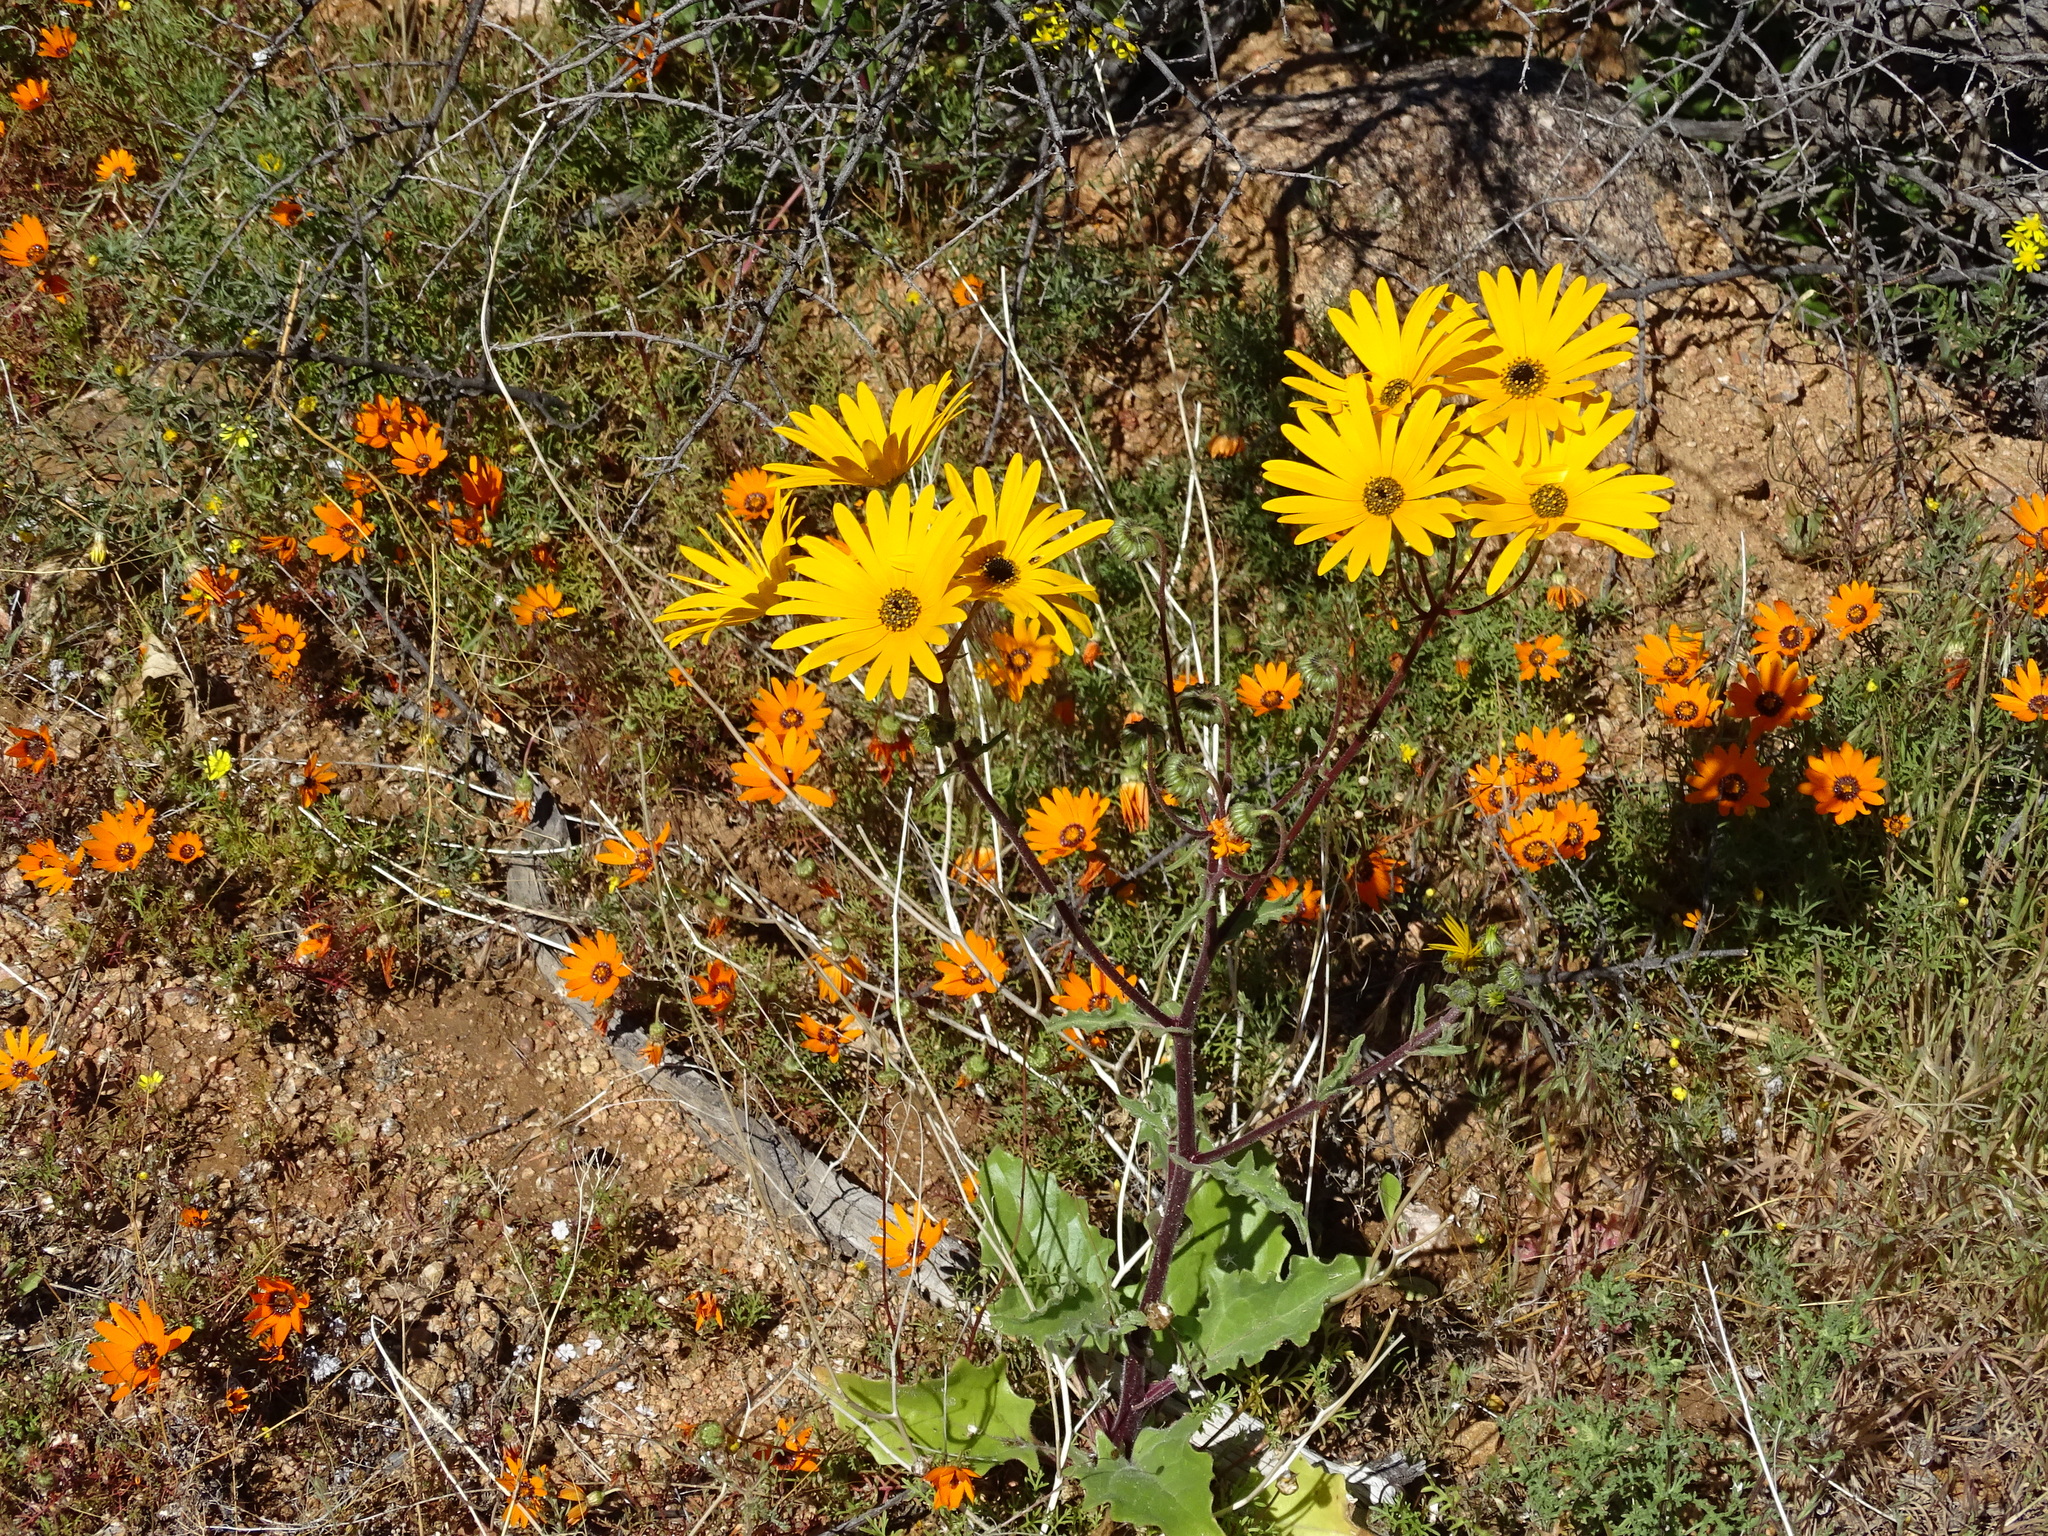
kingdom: Plantae
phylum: Tracheophyta
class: Magnoliopsida
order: Asterales
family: Asteraceae
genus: Osteospermum
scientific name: Osteospermum amplectens
